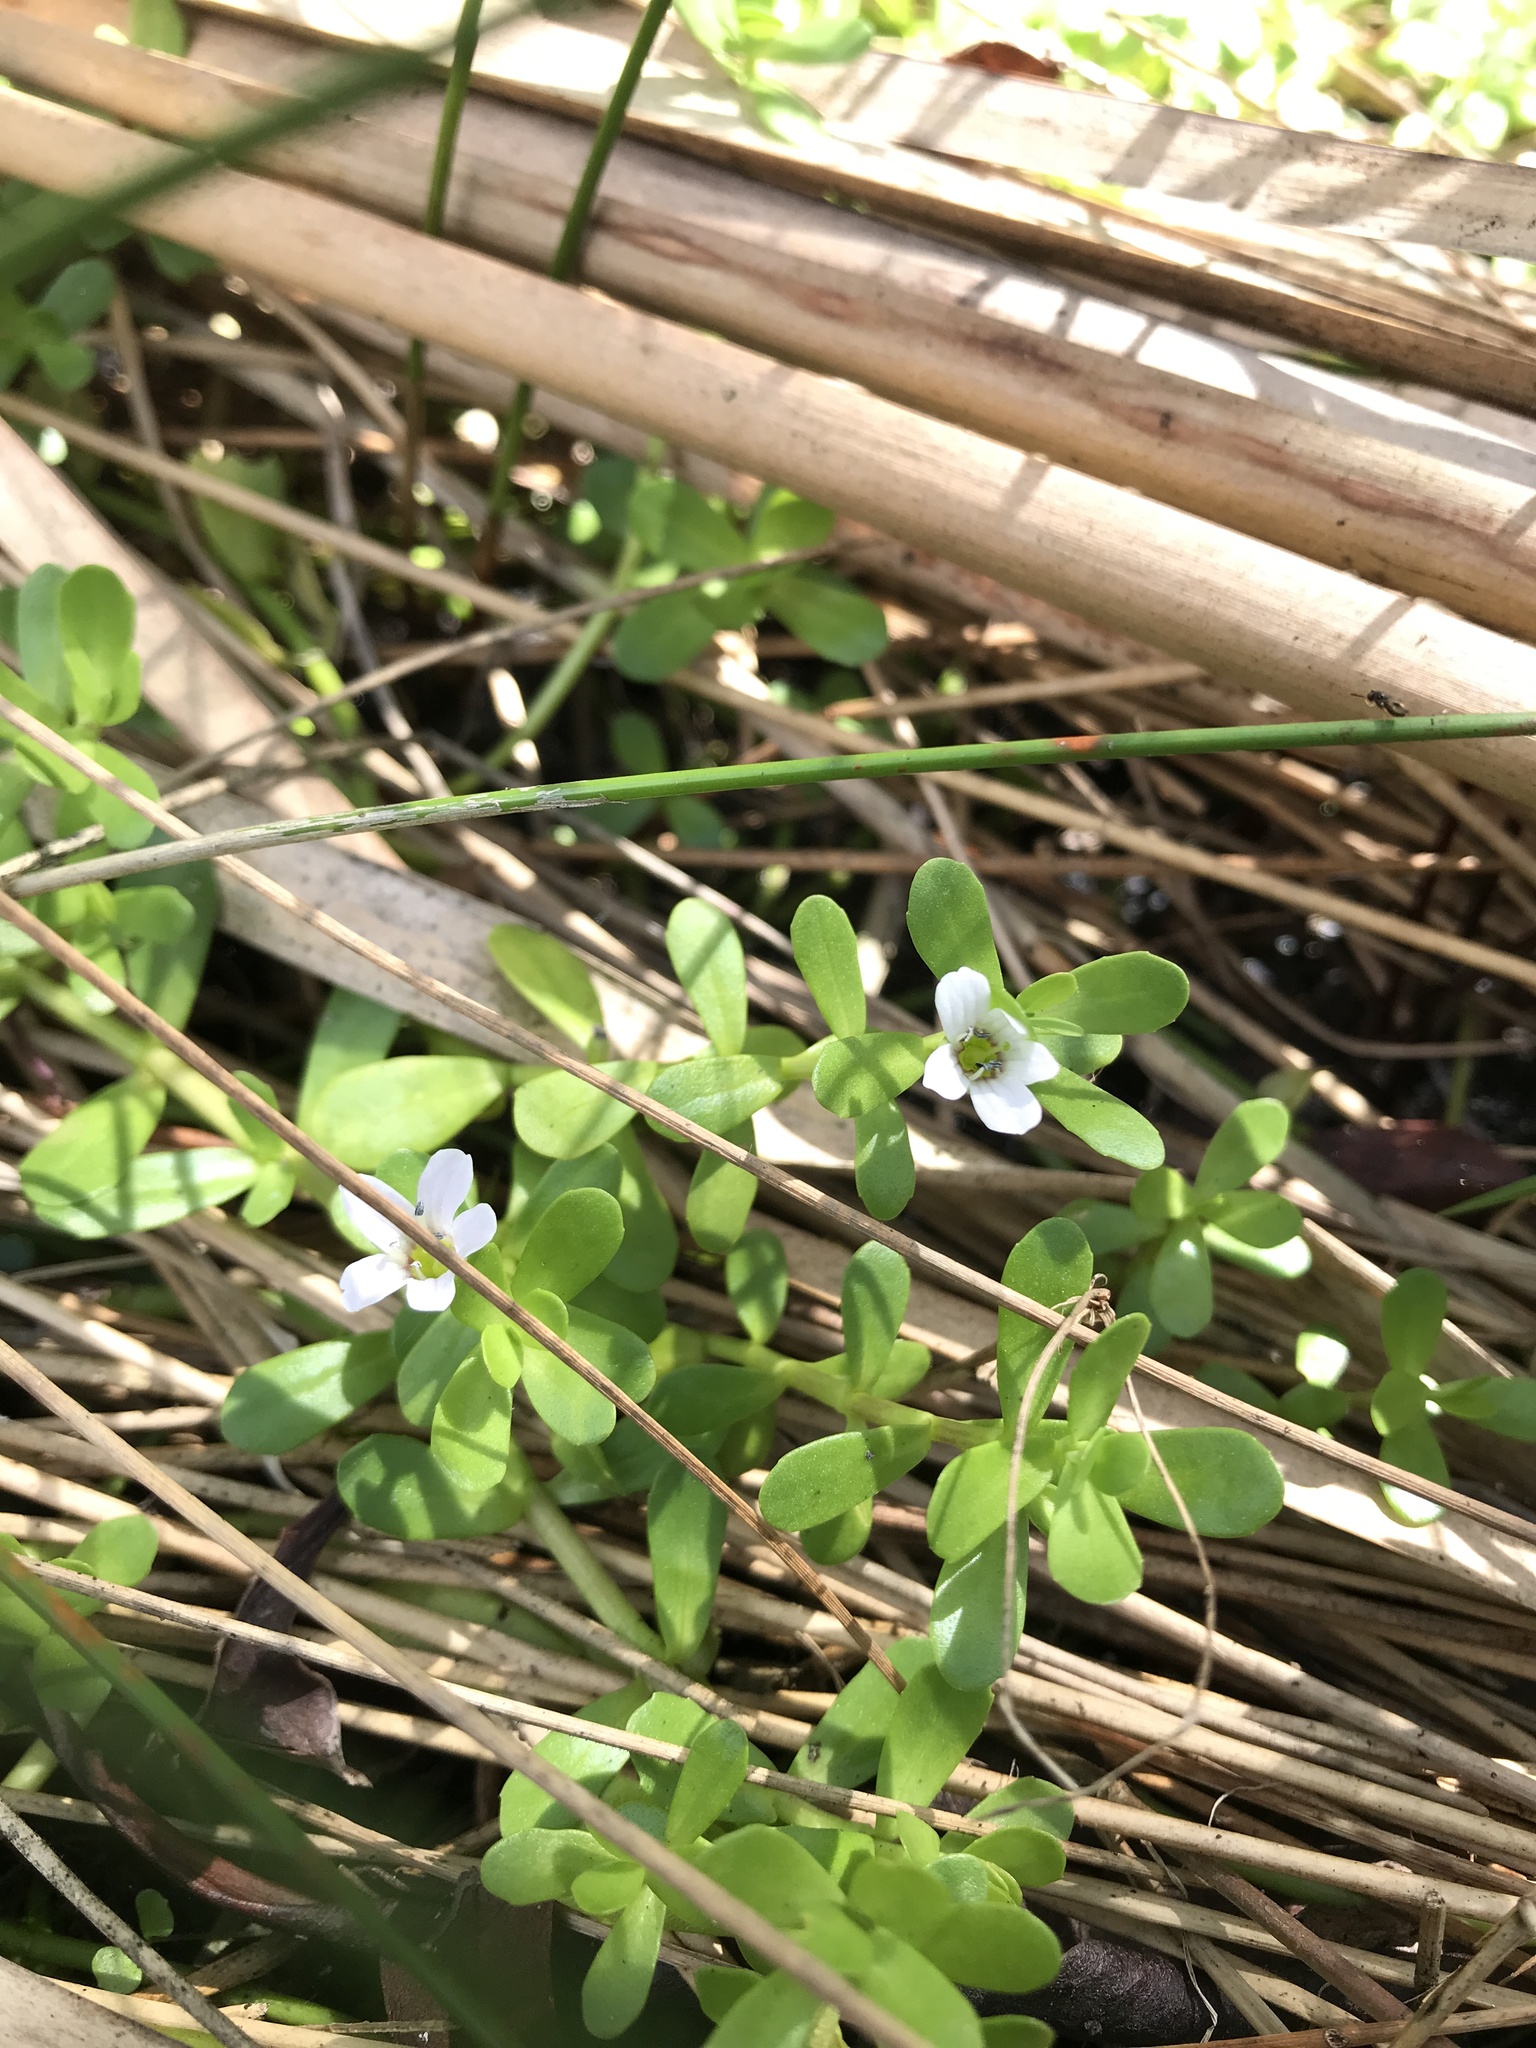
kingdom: Plantae
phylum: Tracheophyta
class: Magnoliopsida
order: Lamiales
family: Plantaginaceae
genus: Bacopa
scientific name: Bacopa monnieri
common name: Indian-pennywort
